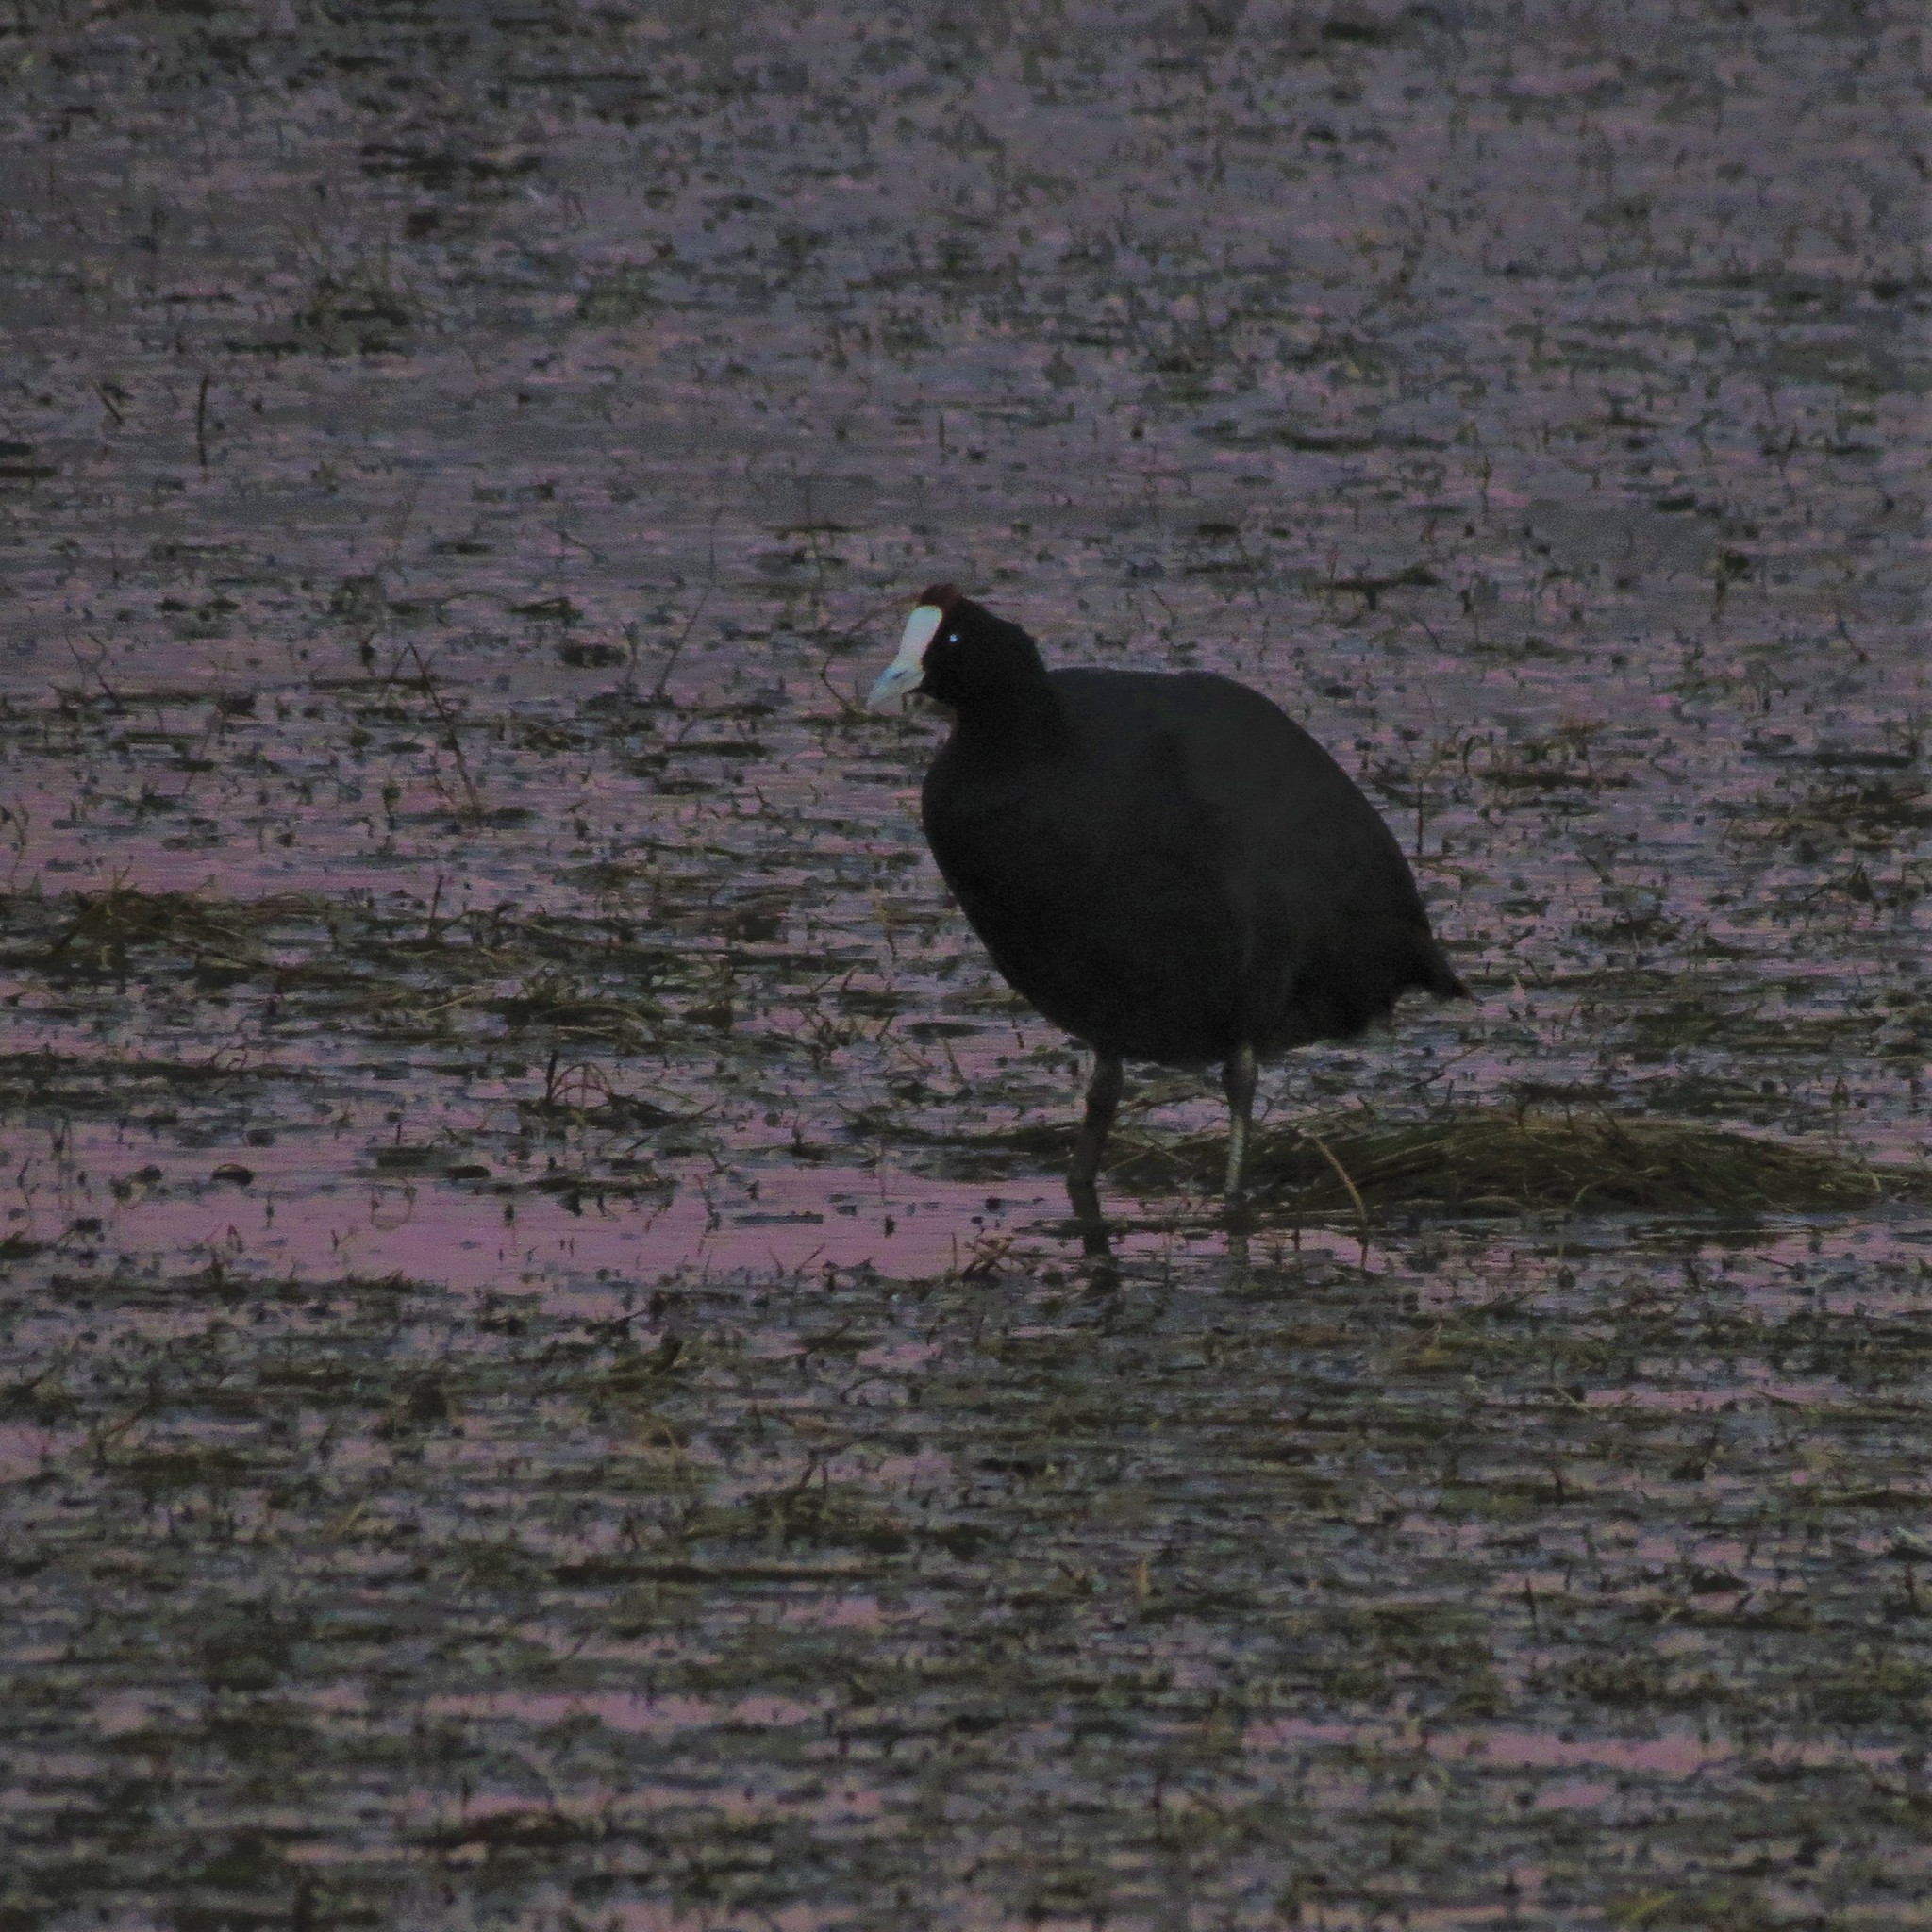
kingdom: Animalia
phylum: Chordata
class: Aves
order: Gruiformes
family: Rallidae
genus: Fulica
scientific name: Fulica cristata
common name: Red-knobbed coot
